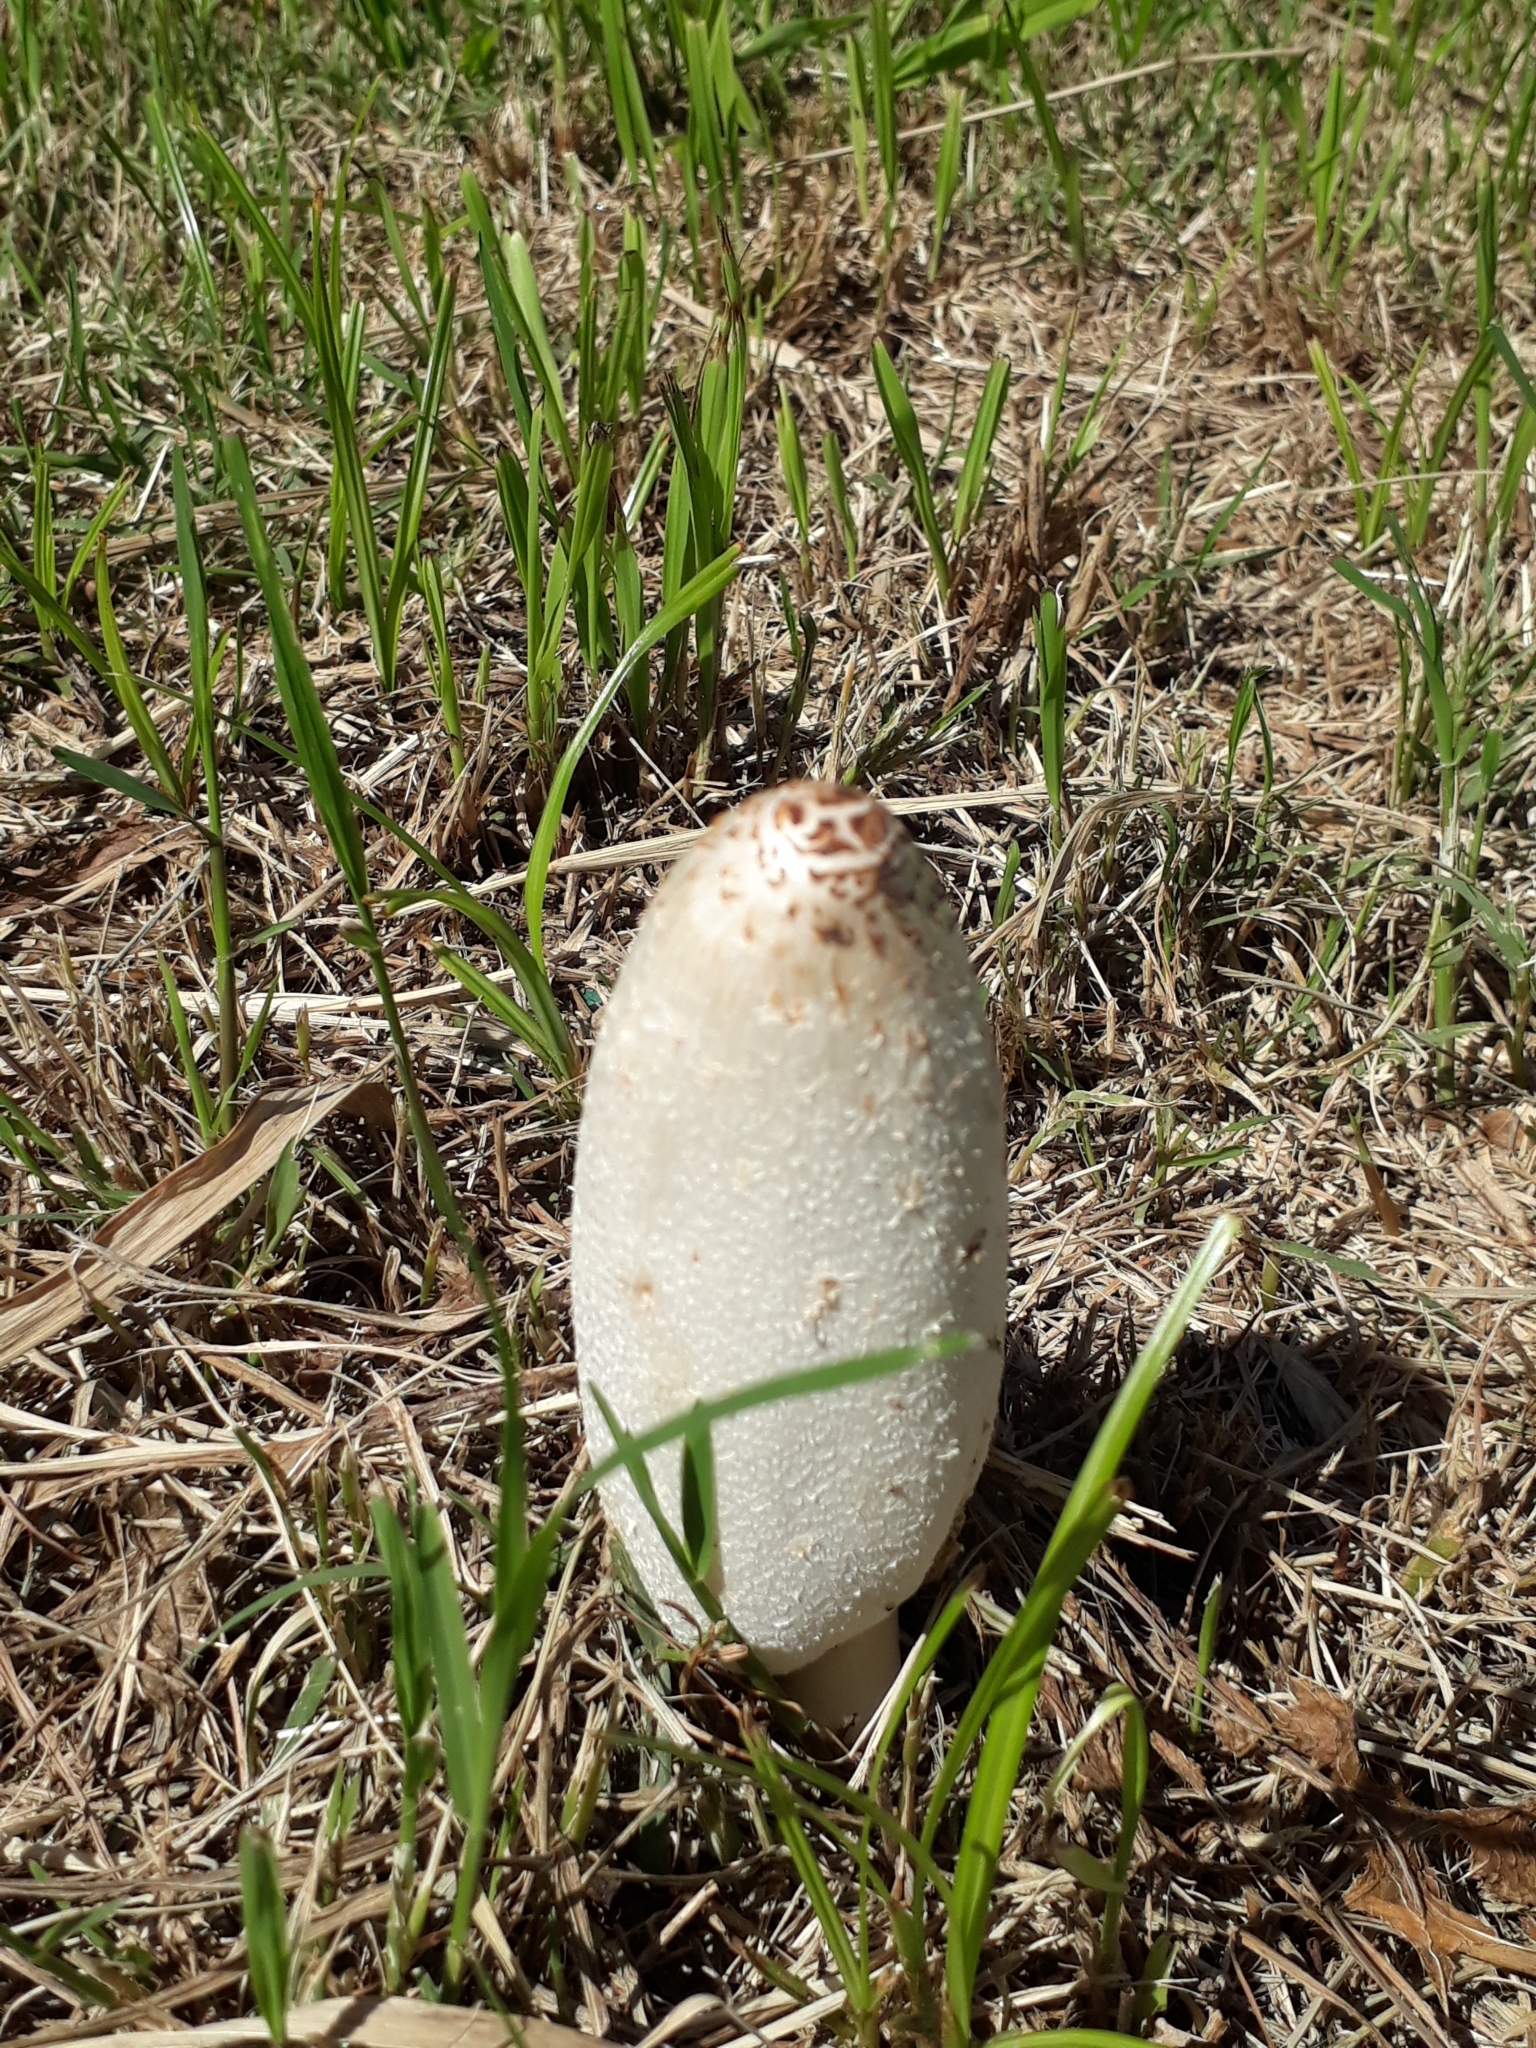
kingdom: Fungi
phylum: Basidiomycota
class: Agaricomycetes
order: Agaricales
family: Agaricaceae
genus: Coprinus
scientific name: Coprinus comatus
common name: Lawyer's wig
